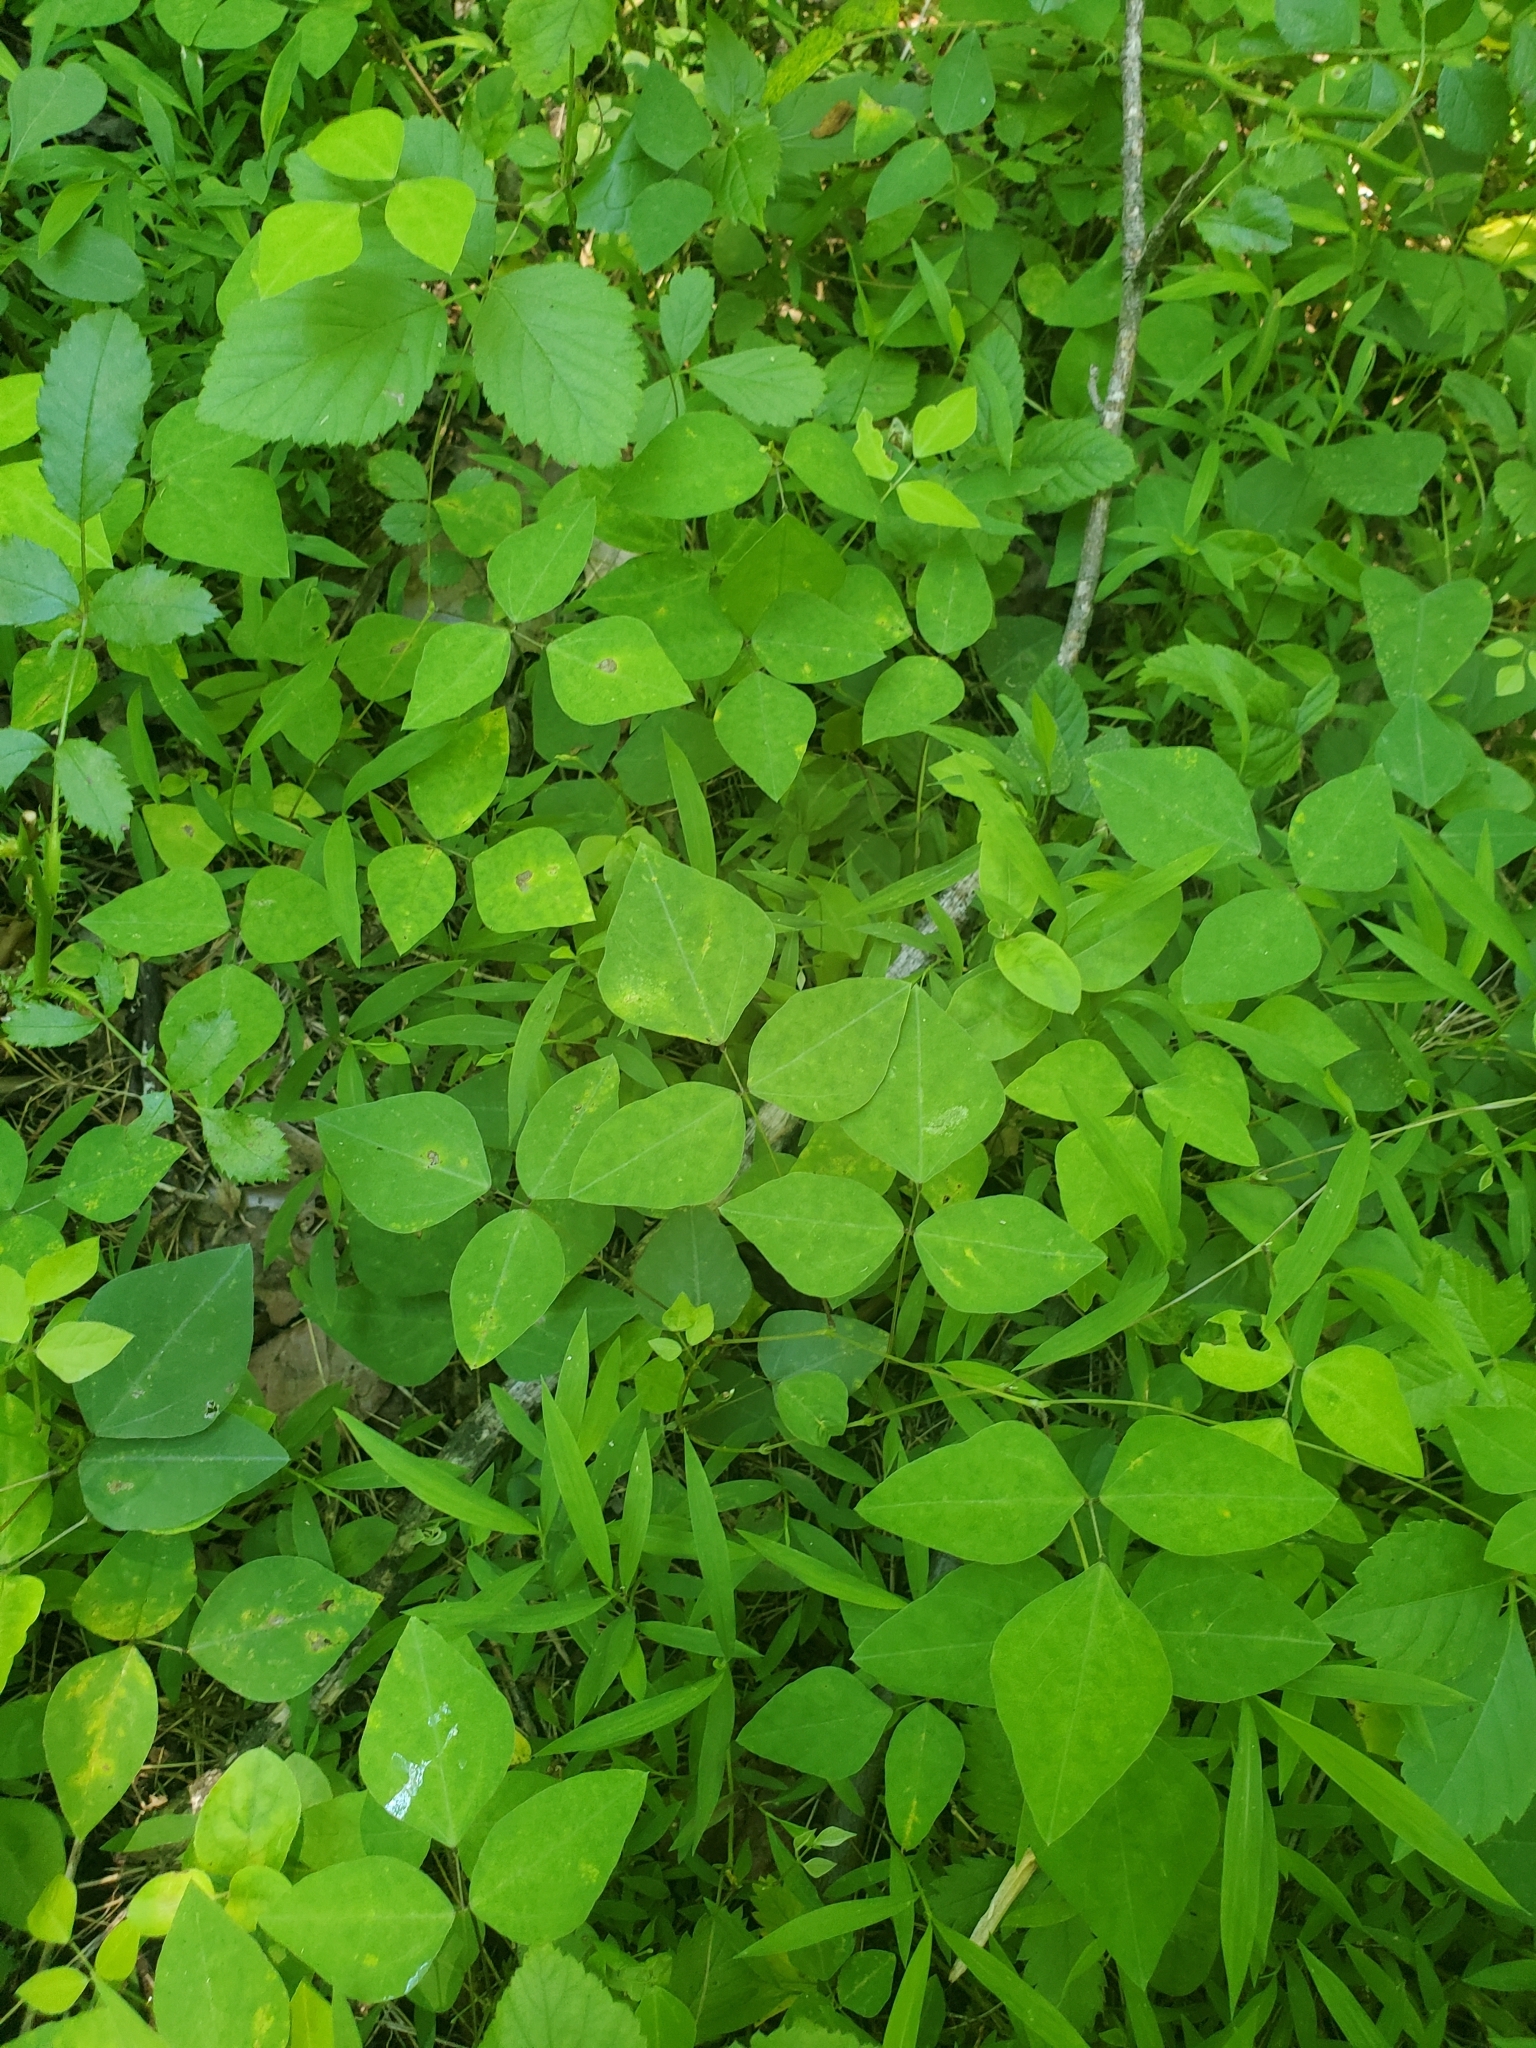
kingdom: Plantae
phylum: Tracheophyta
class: Magnoliopsida
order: Fabales
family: Fabaceae
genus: Amphicarpaea
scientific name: Amphicarpaea bracteata
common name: American hog peanut
